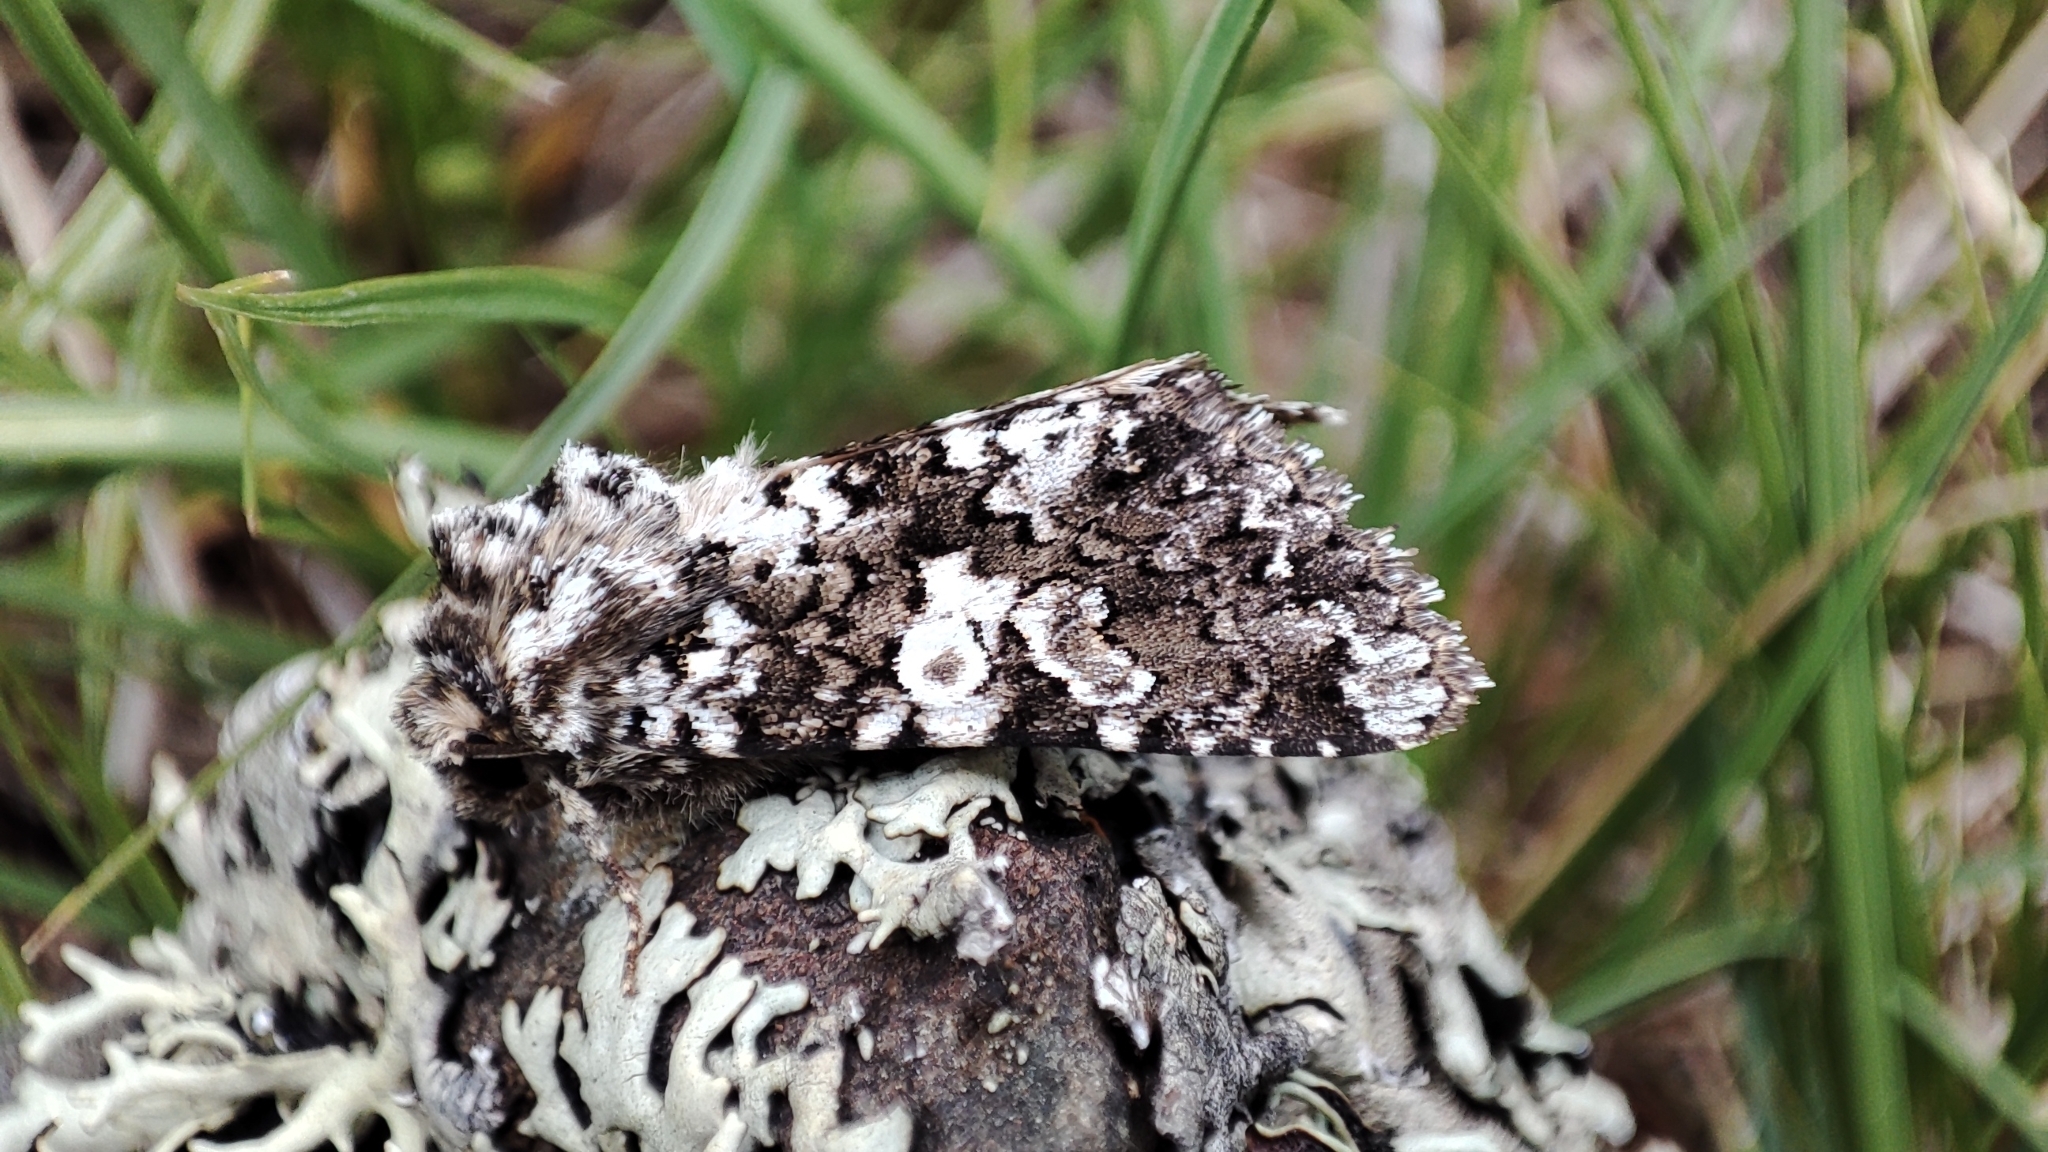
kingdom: Animalia
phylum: Arthropoda
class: Insecta
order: Lepidoptera
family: Noctuidae
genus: Hadena
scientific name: Hadena variolata
